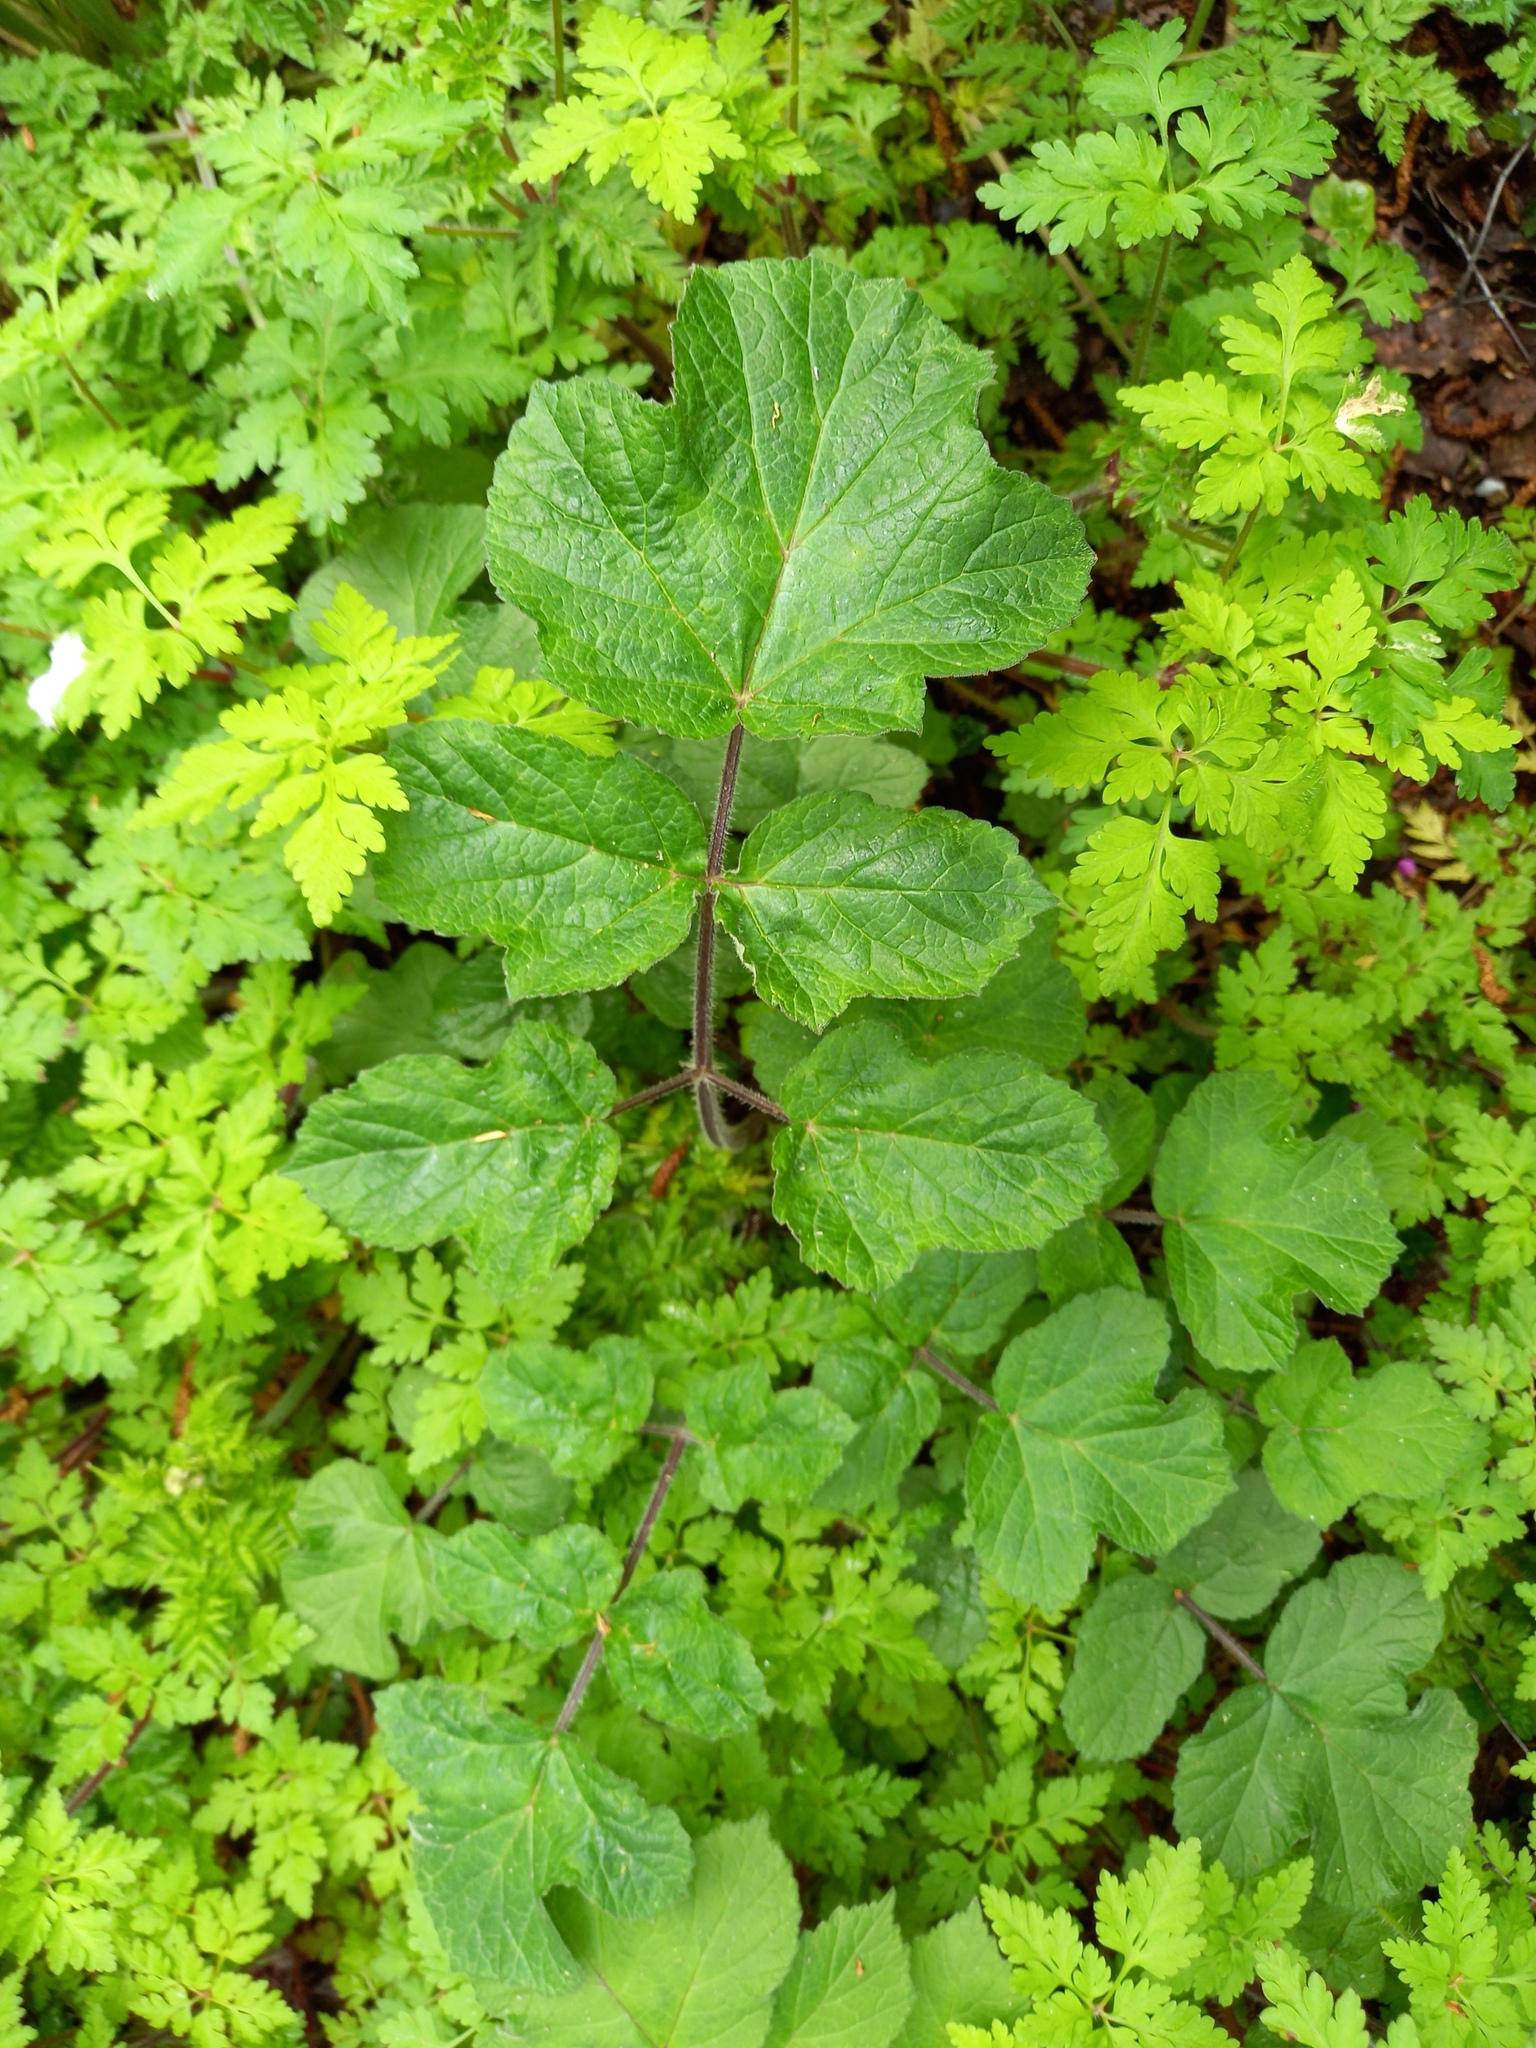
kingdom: Plantae
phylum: Tracheophyta
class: Magnoliopsida
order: Apiales
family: Apiaceae
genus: Heracleum
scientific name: Heracleum sphondylium
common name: Hogweed
